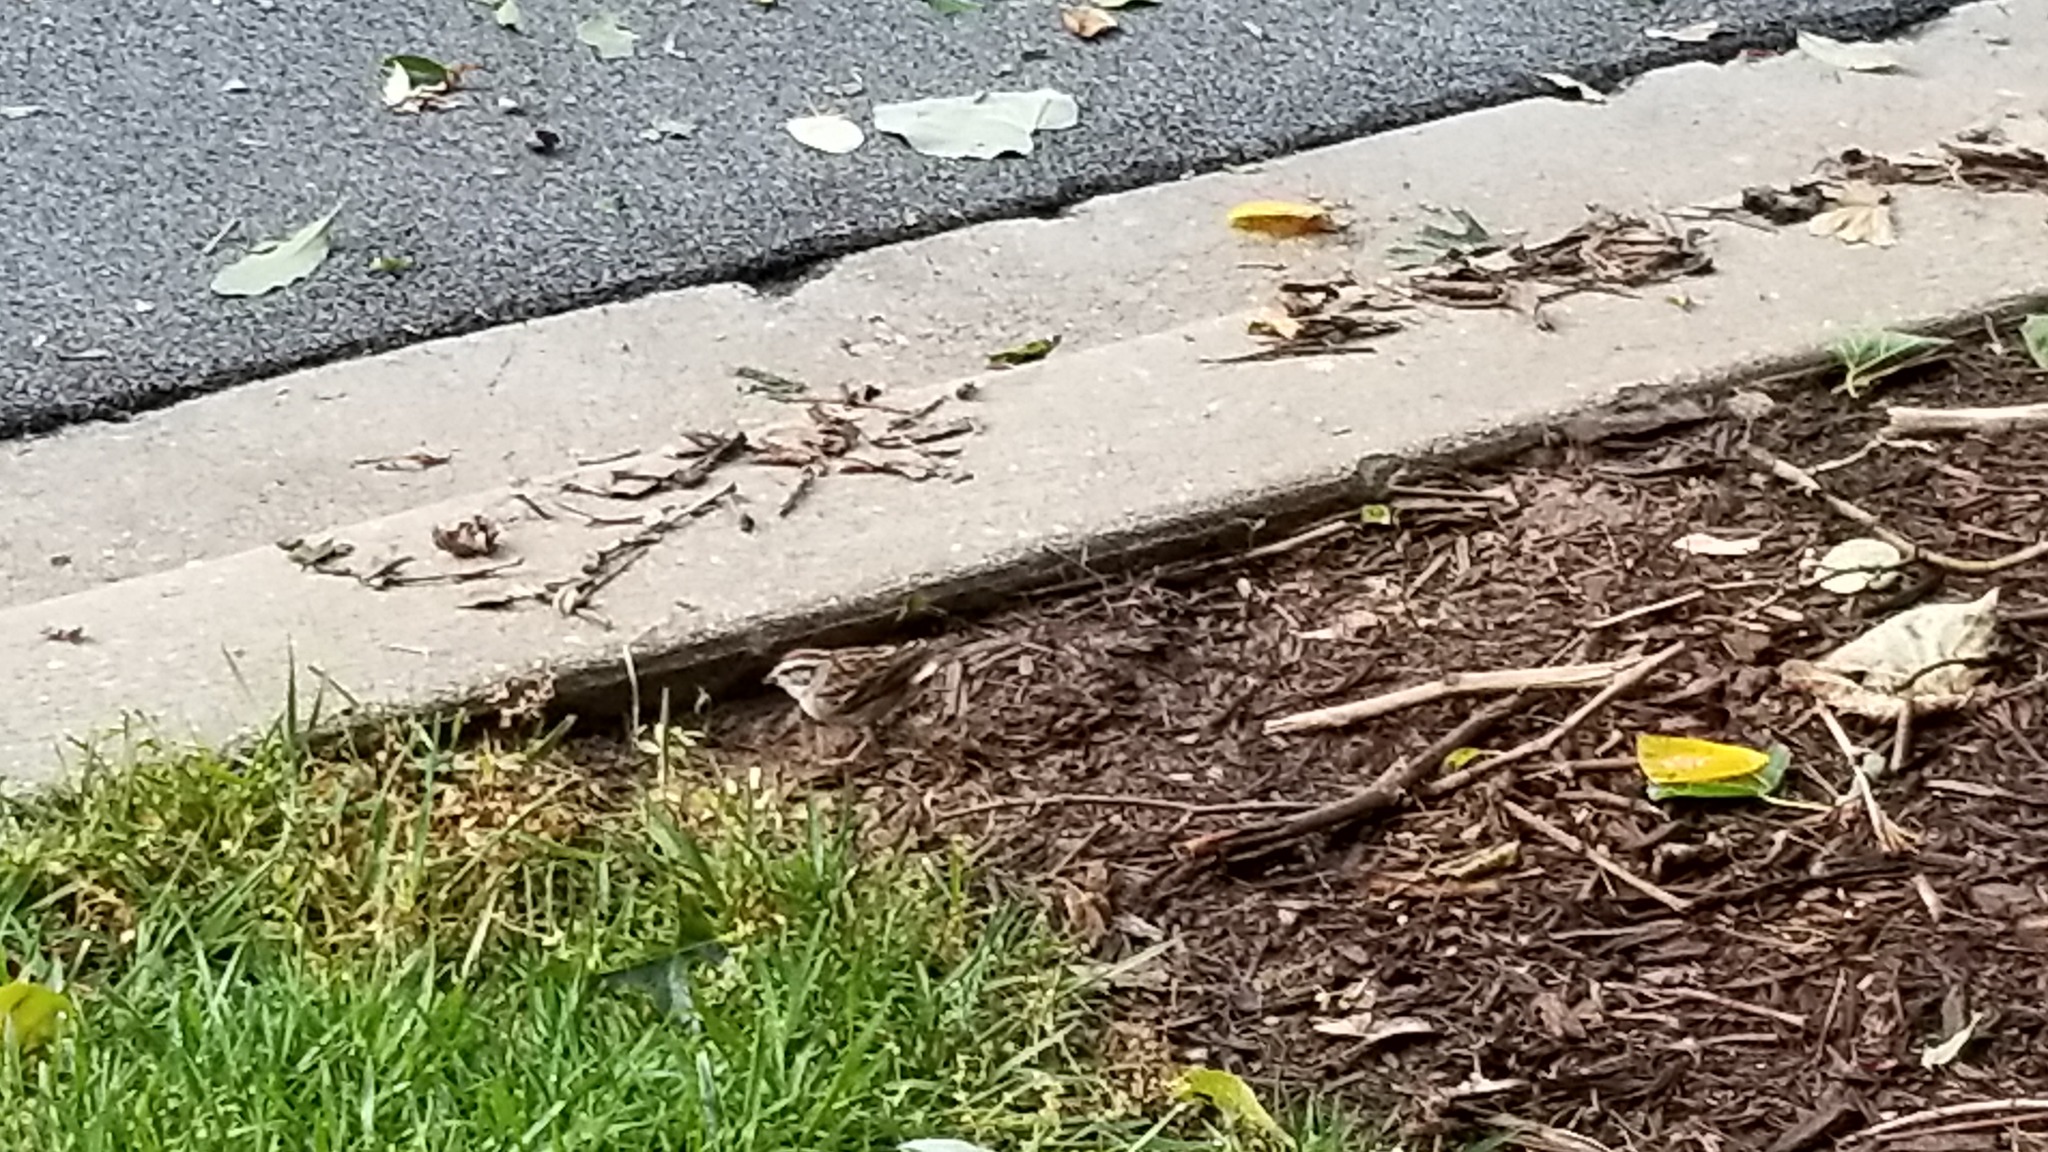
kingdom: Animalia
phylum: Chordata
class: Aves
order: Passeriformes
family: Passerellidae
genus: Spizella
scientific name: Spizella passerina
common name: Chipping sparrow
